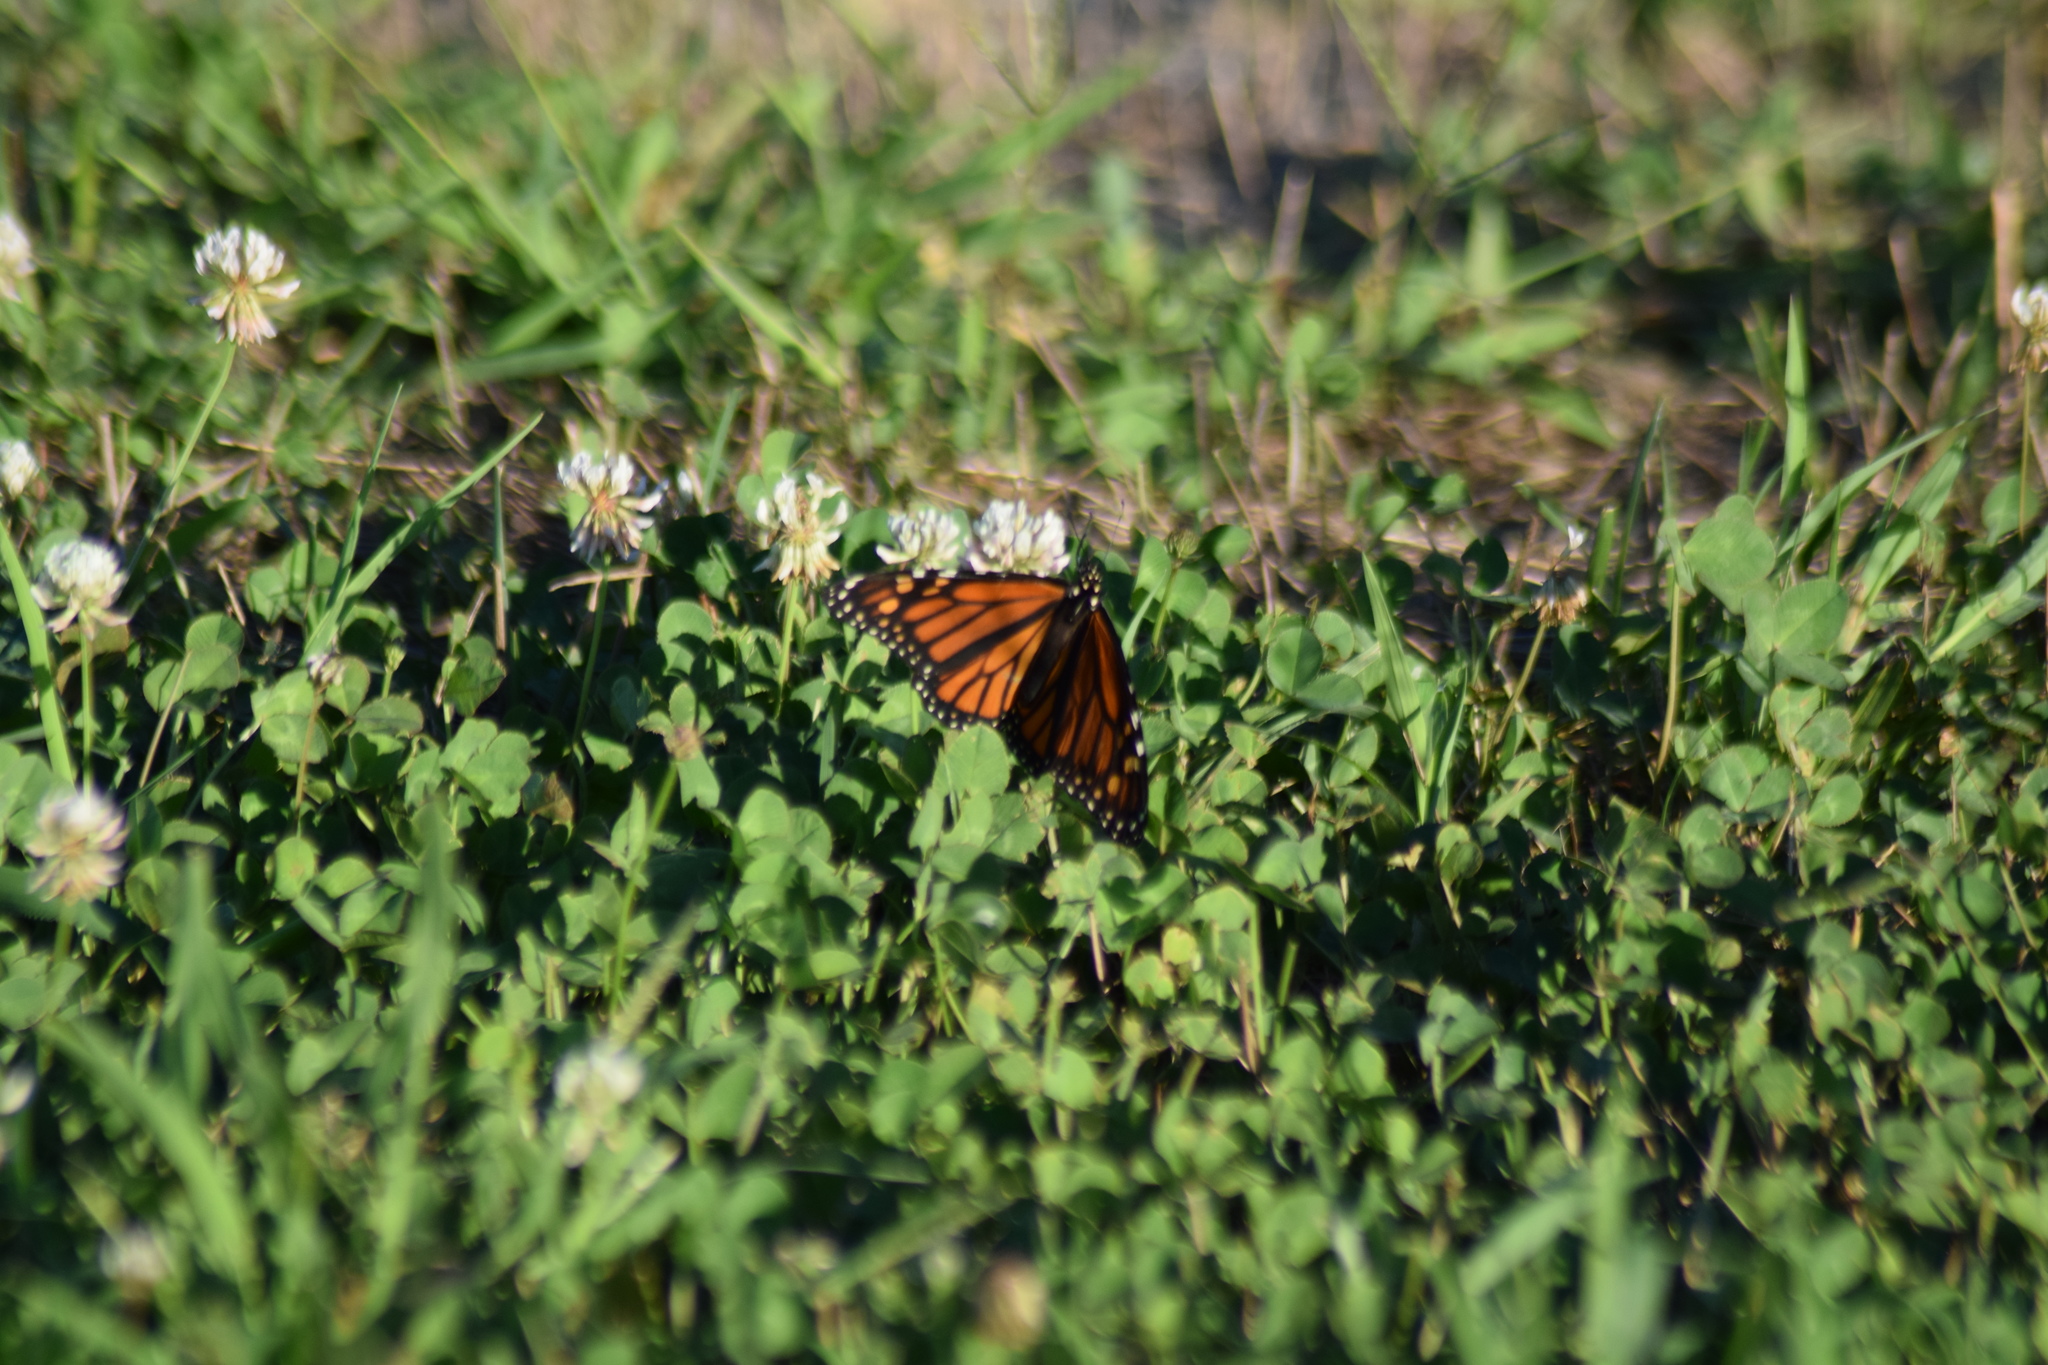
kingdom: Animalia
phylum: Arthropoda
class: Insecta
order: Lepidoptera
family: Nymphalidae
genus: Danaus
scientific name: Danaus plexippus
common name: Monarch
